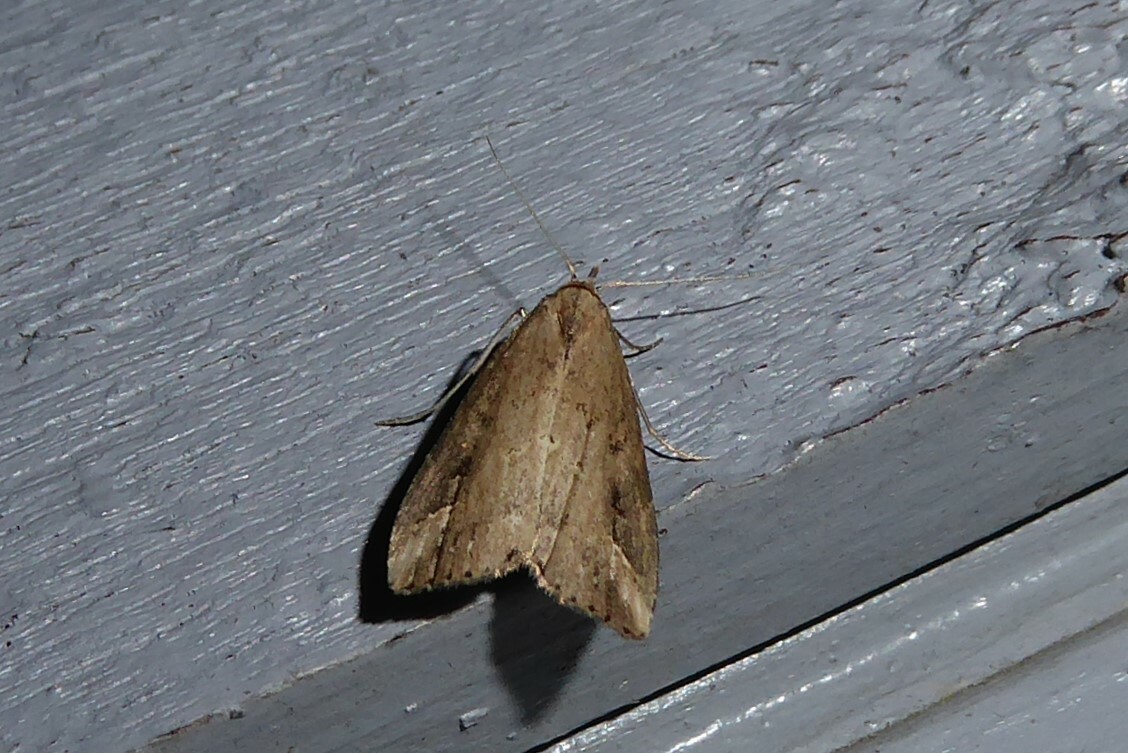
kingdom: Animalia
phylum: Arthropoda
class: Insecta
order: Lepidoptera
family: Erebidae
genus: Schrankia
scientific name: Schrankia costaestrigalis
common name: Pinion-streaked snout
